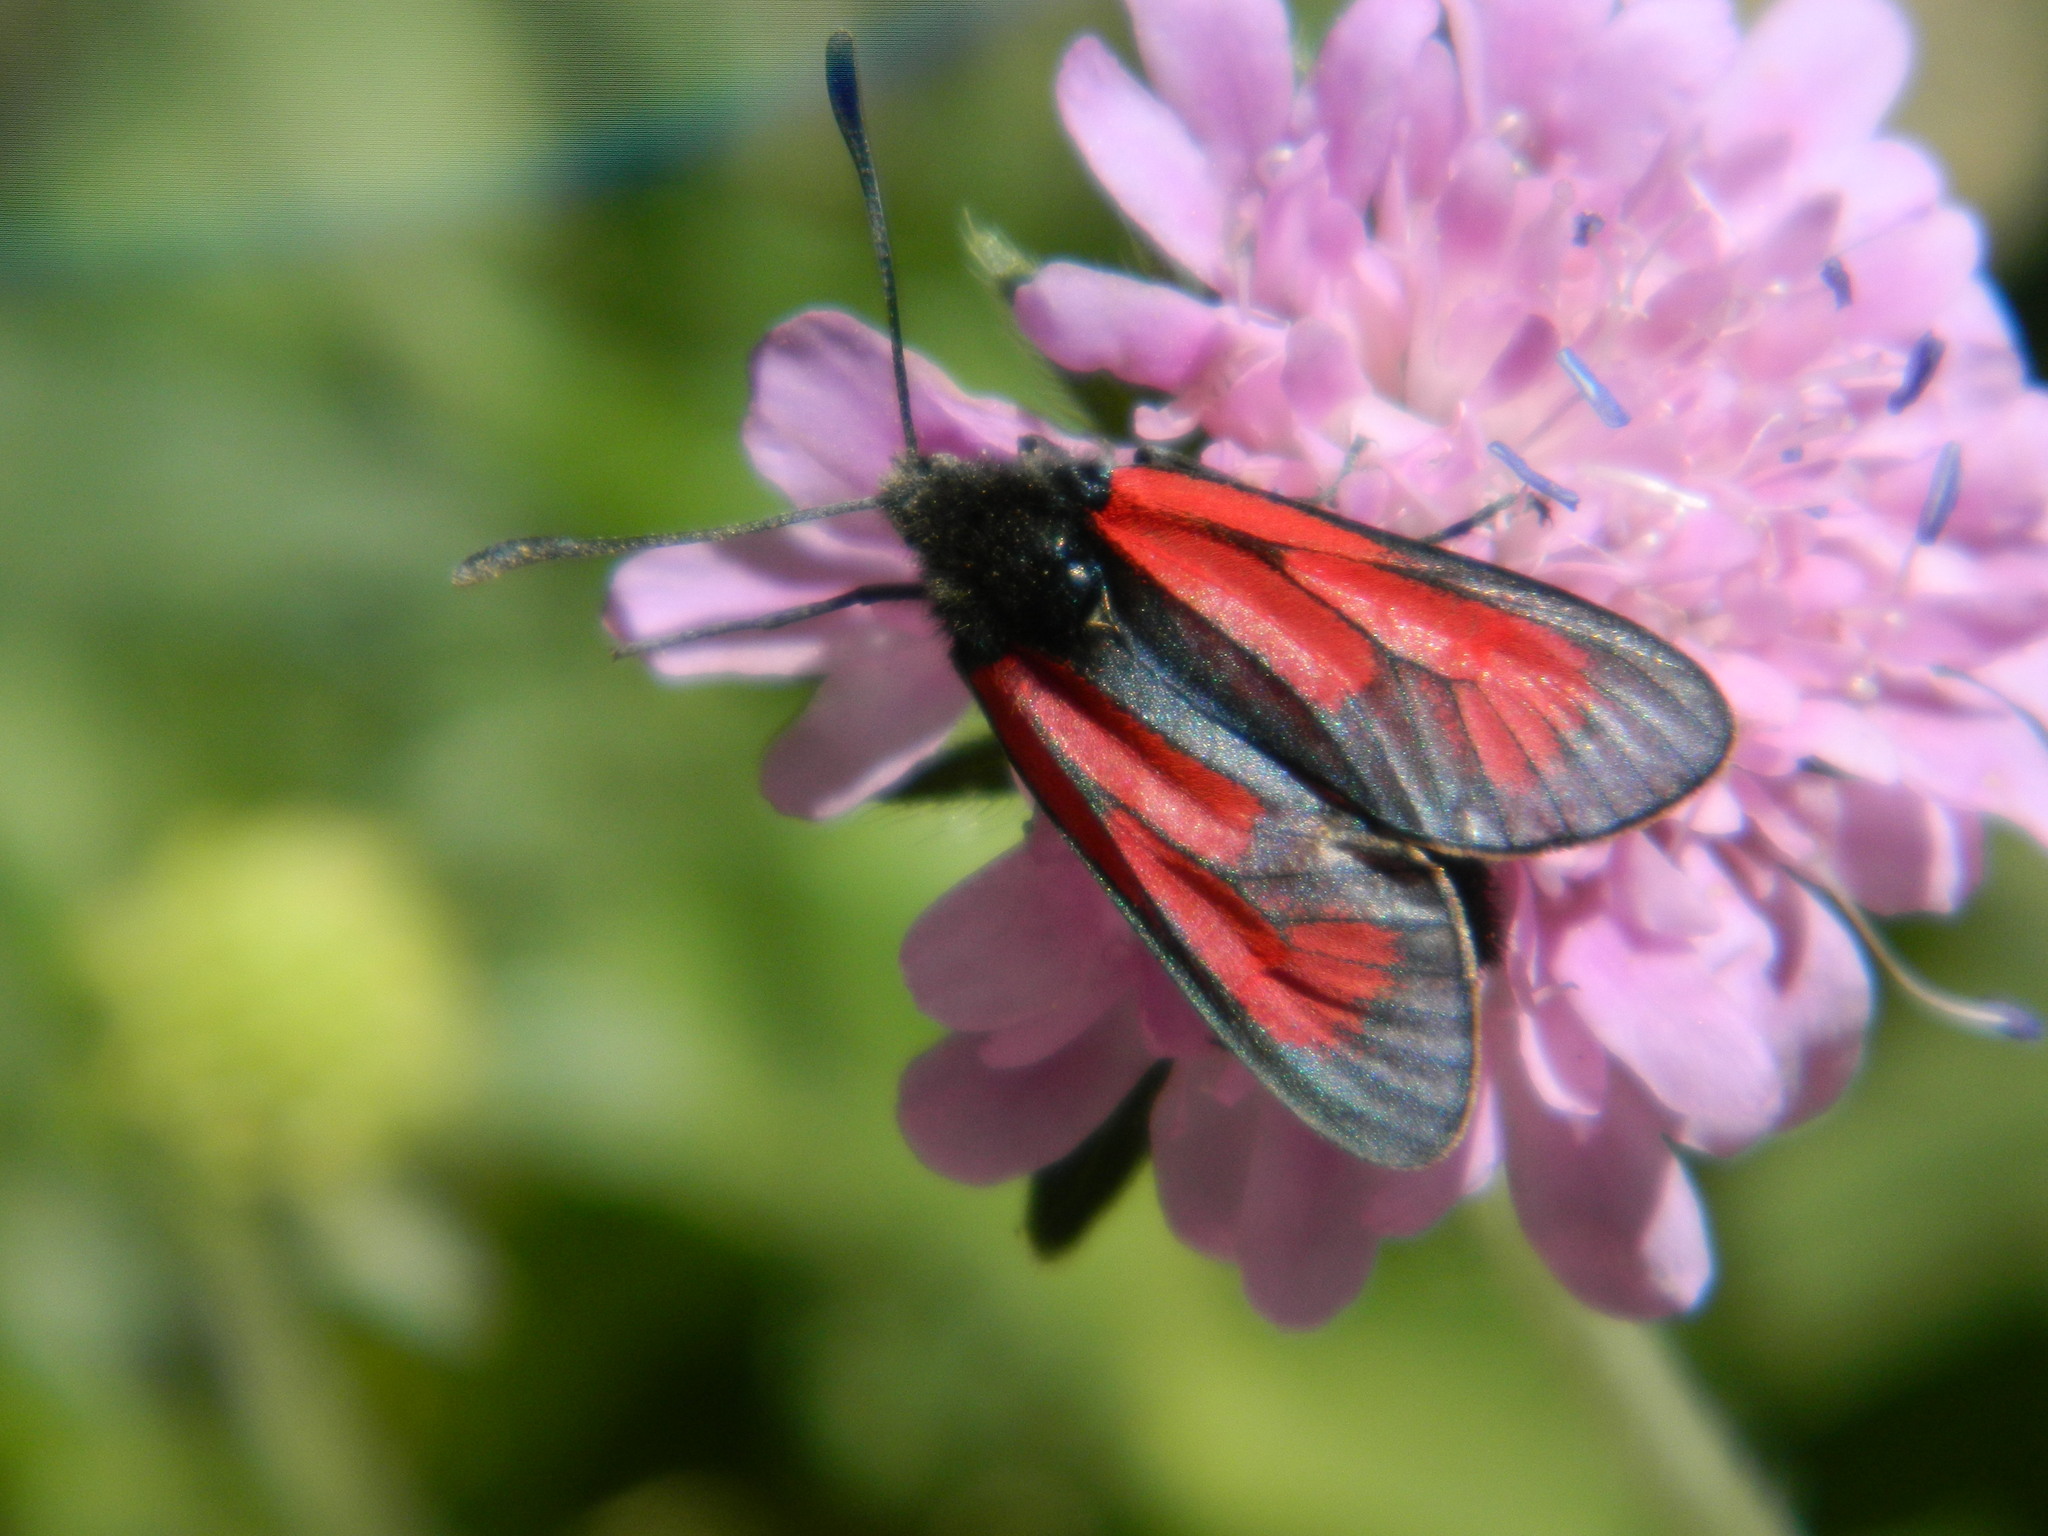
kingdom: Animalia
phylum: Arthropoda
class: Insecta
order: Lepidoptera
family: Zygaenidae
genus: Zygaena
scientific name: Zygaena purpuralis
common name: Transparent burnet
